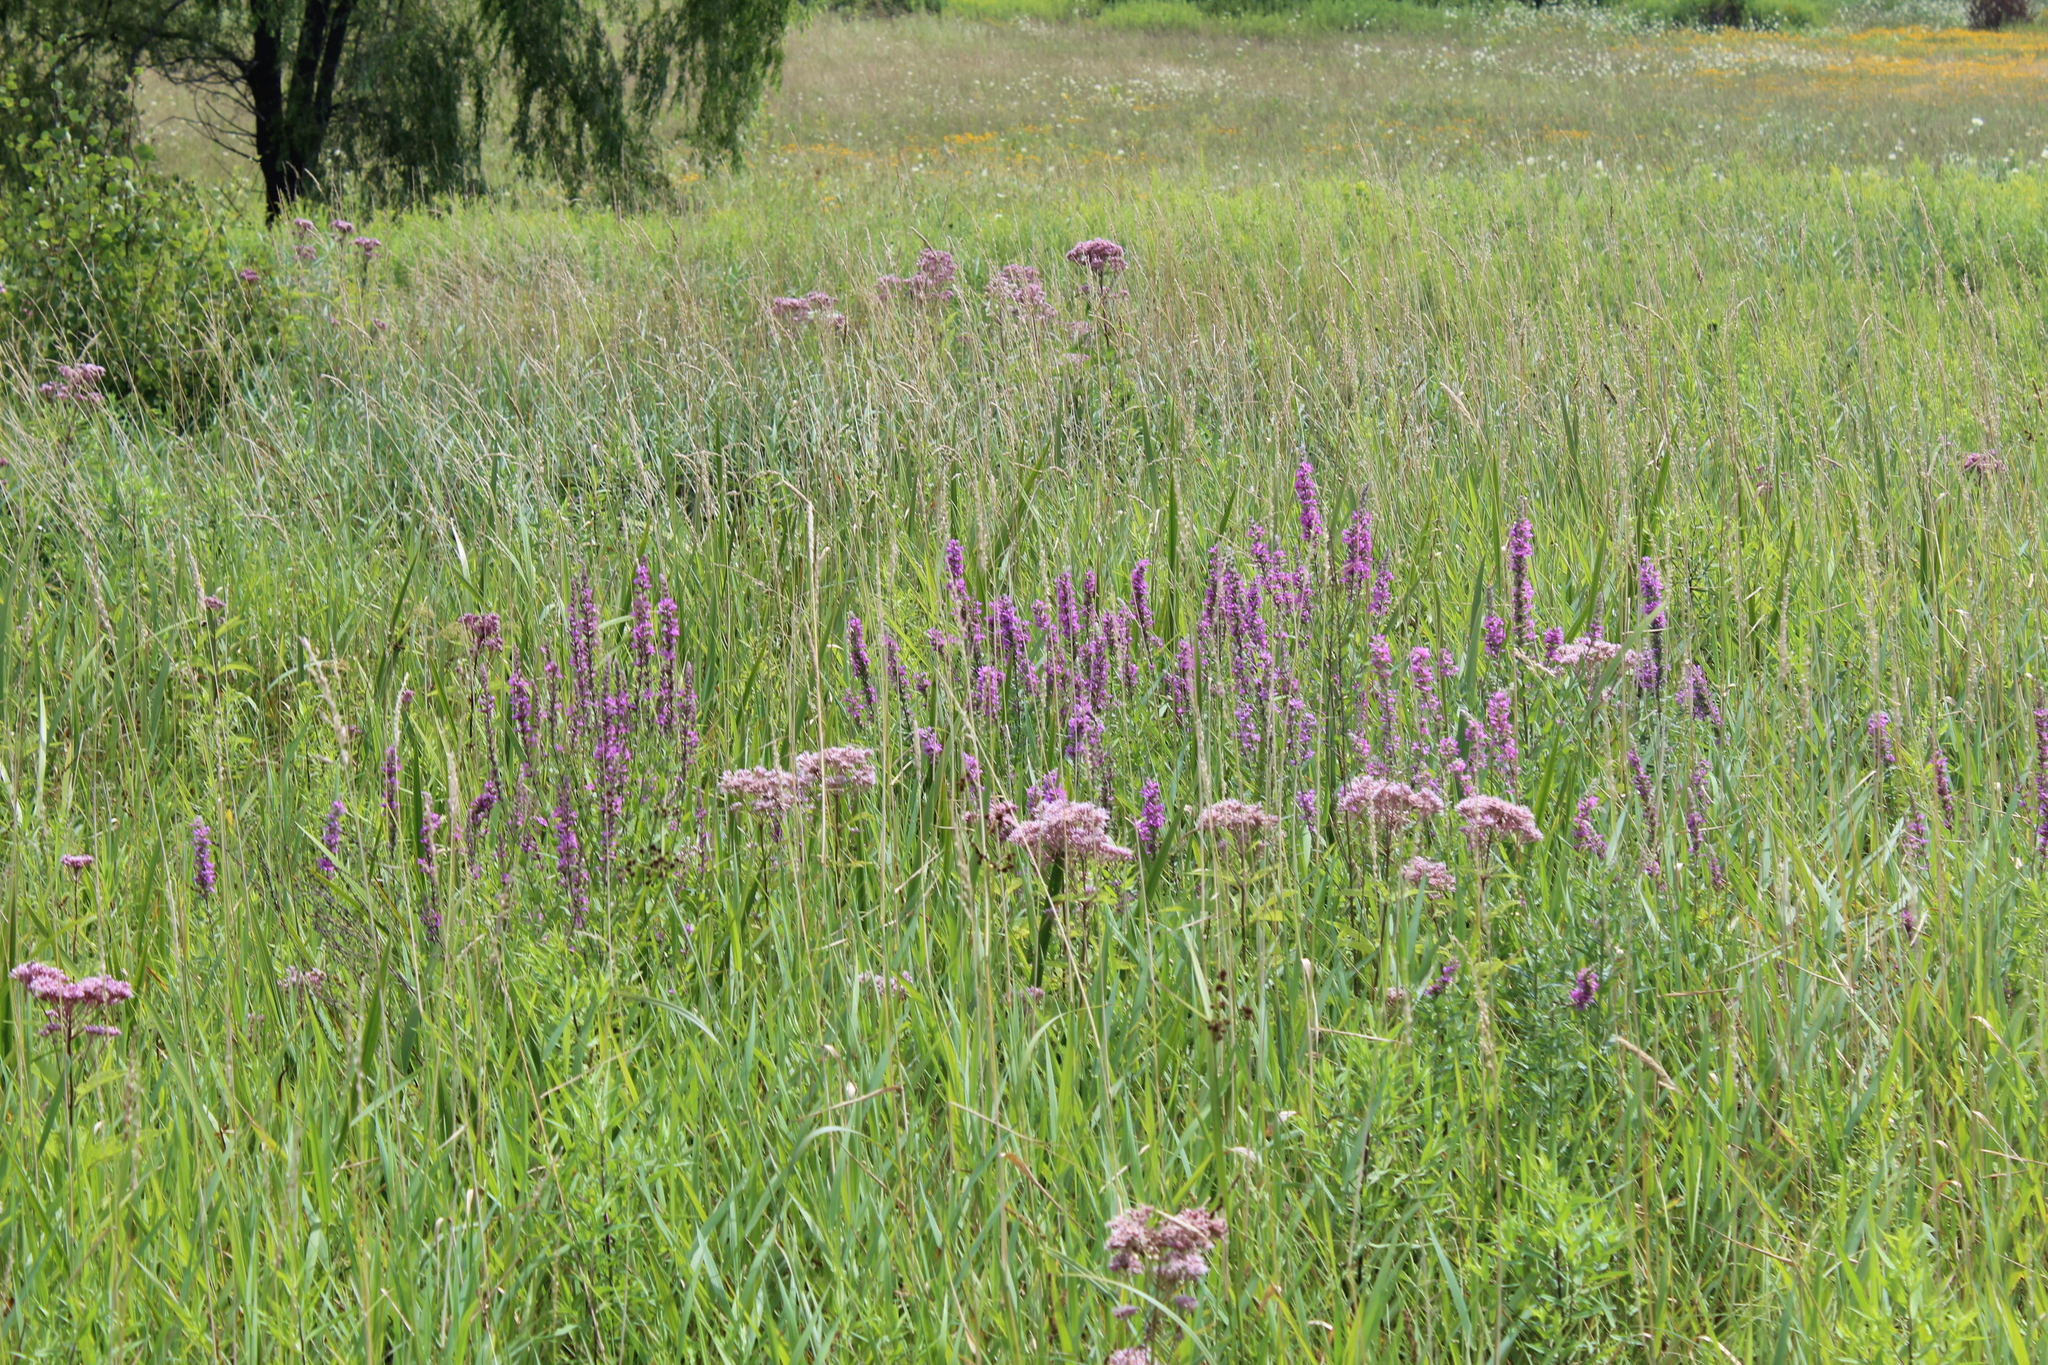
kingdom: Plantae
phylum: Tracheophyta
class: Magnoliopsida
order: Myrtales
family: Lythraceae
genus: Lythrum
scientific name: Lythrum salicaria
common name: Purple loosestrife
